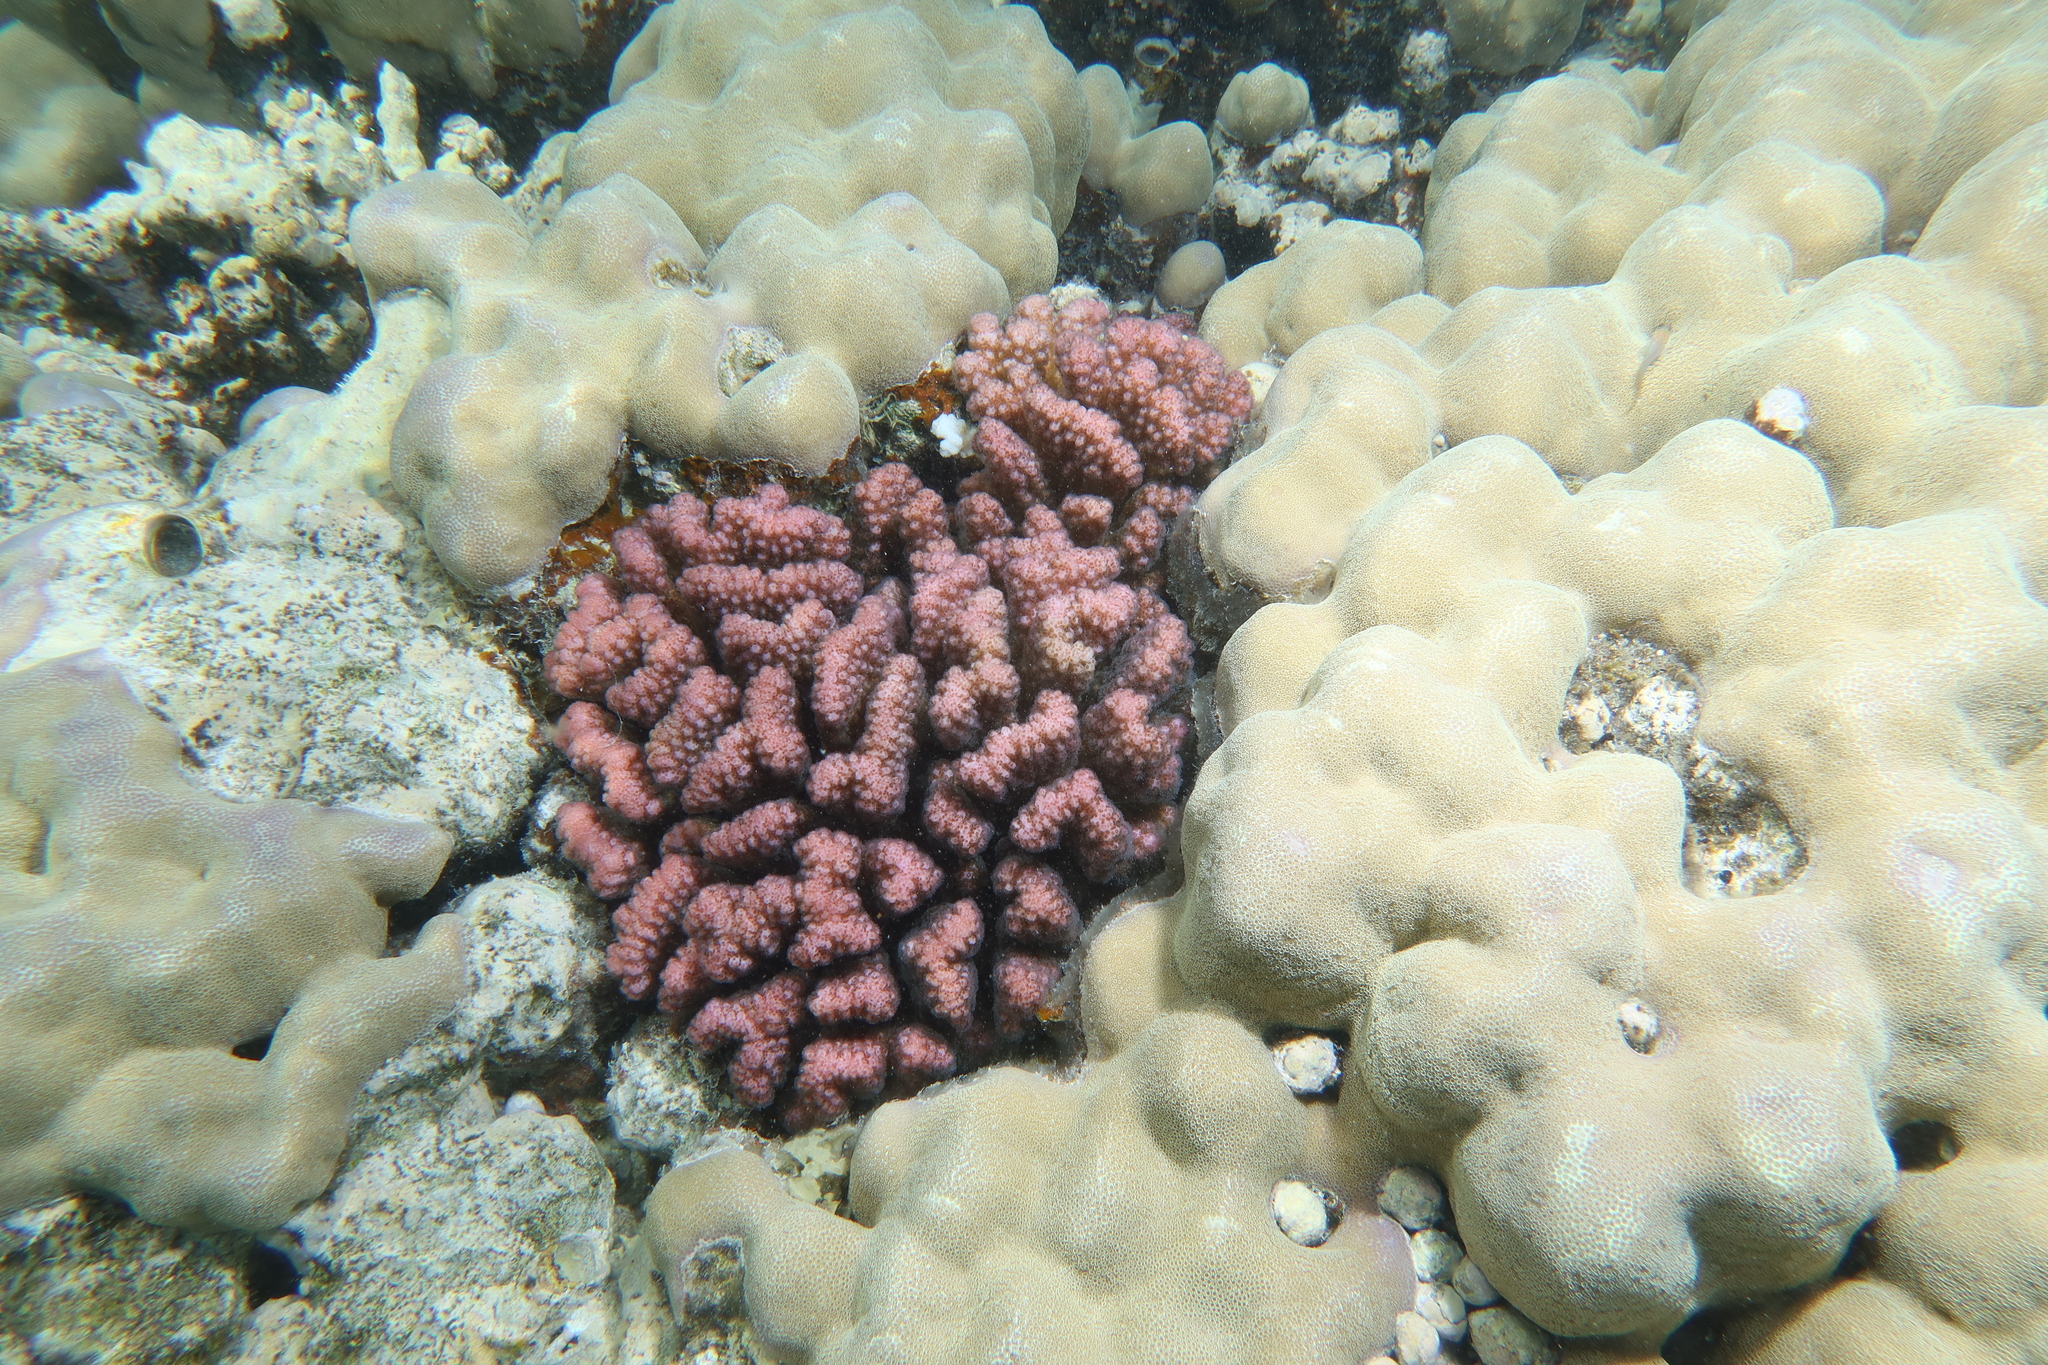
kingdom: Animalia
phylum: Cnidaria
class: Anthozoa
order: Scleractinia
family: Pocilloporidae
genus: Pocillopora
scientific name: Pocillopora verrucosa
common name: Cauliflower coral
